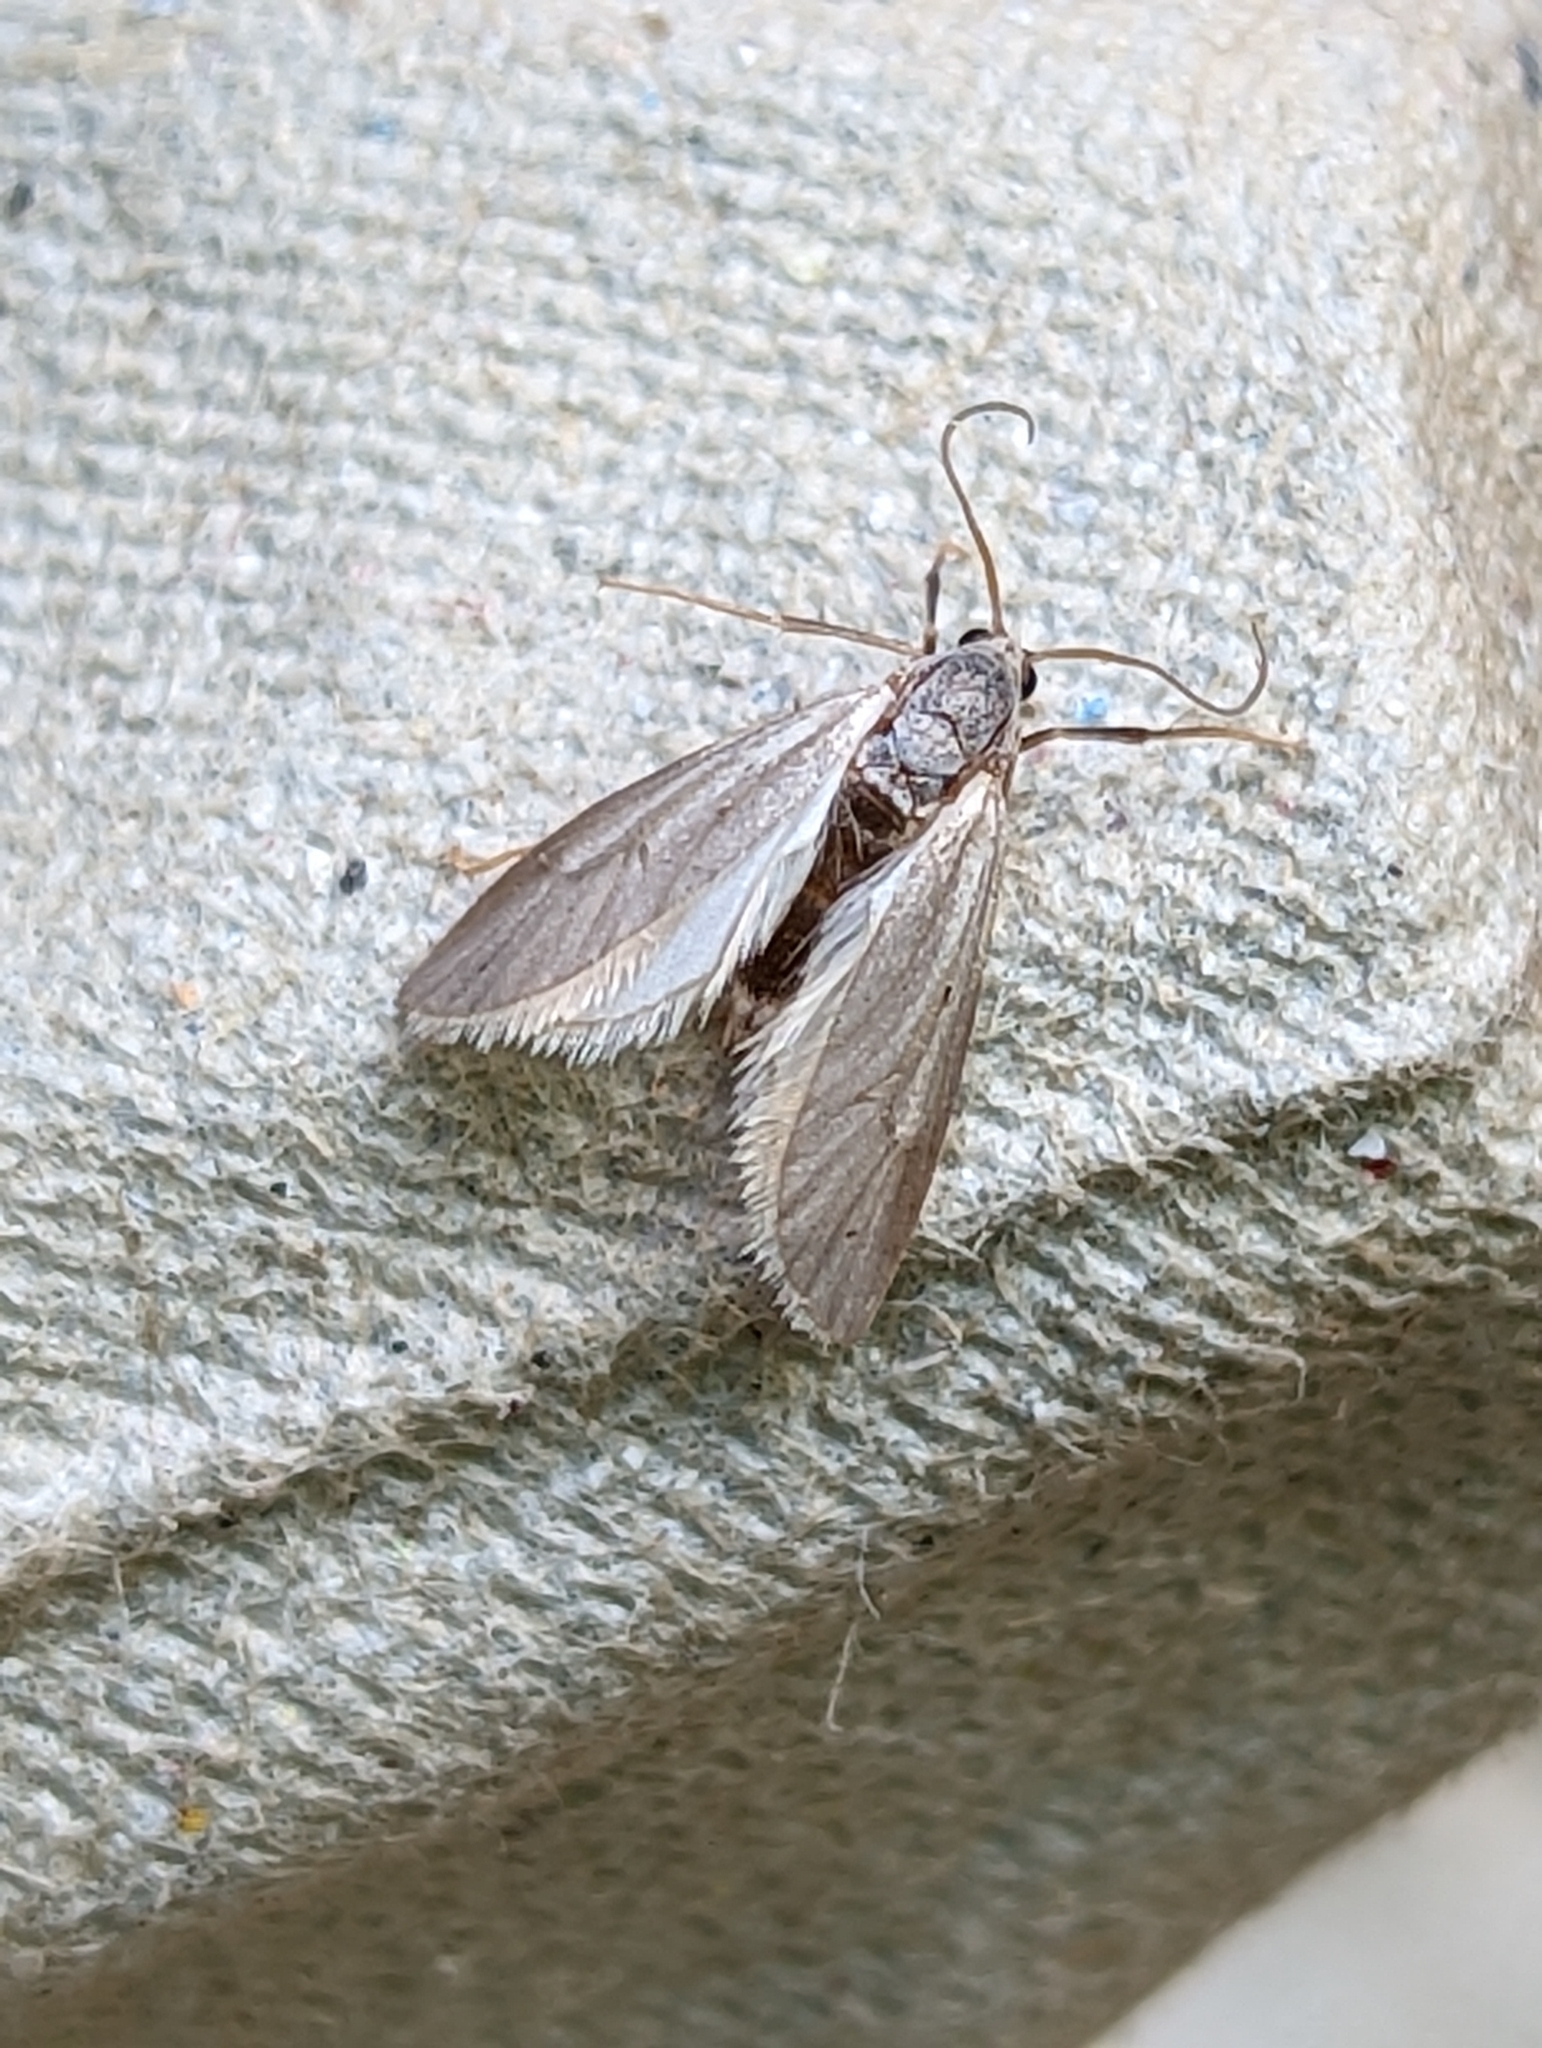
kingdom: Animalia
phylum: Arthropoda
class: Insecta
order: Lepidoptera
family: Crambidae
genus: Acentria
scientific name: Acentria ephemerella
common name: European water moth
